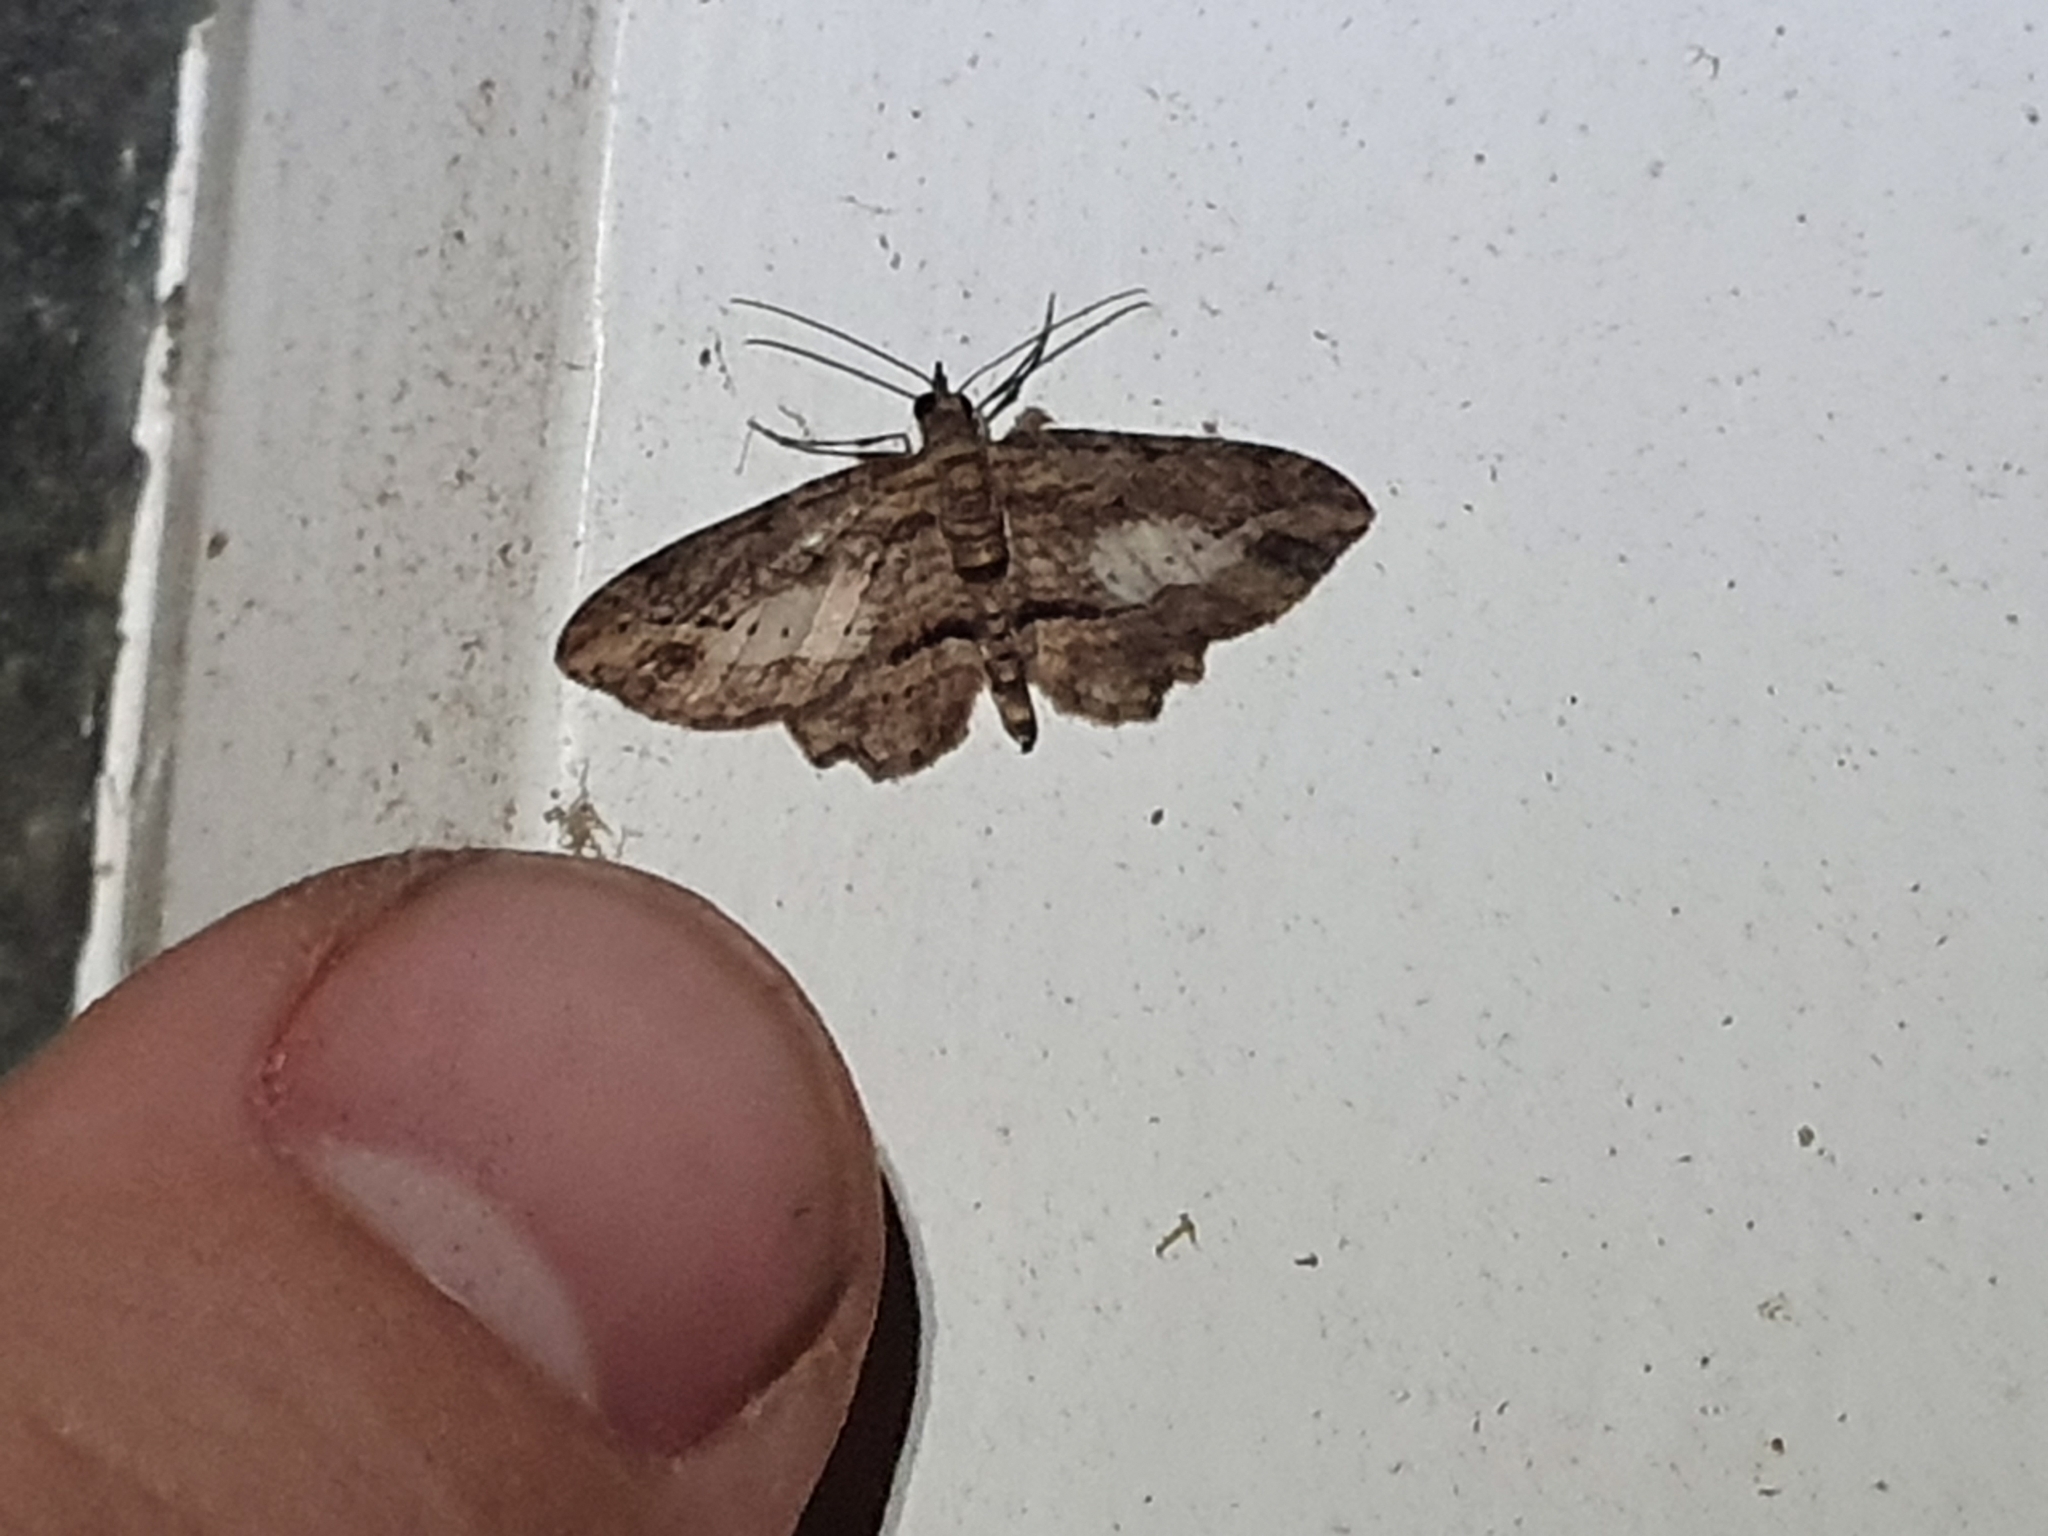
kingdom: Animalia
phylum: Arthropoda
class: Insecta
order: Lepidoptera
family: Geometridae
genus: Chloroclystis
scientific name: Chloroclystis filata
